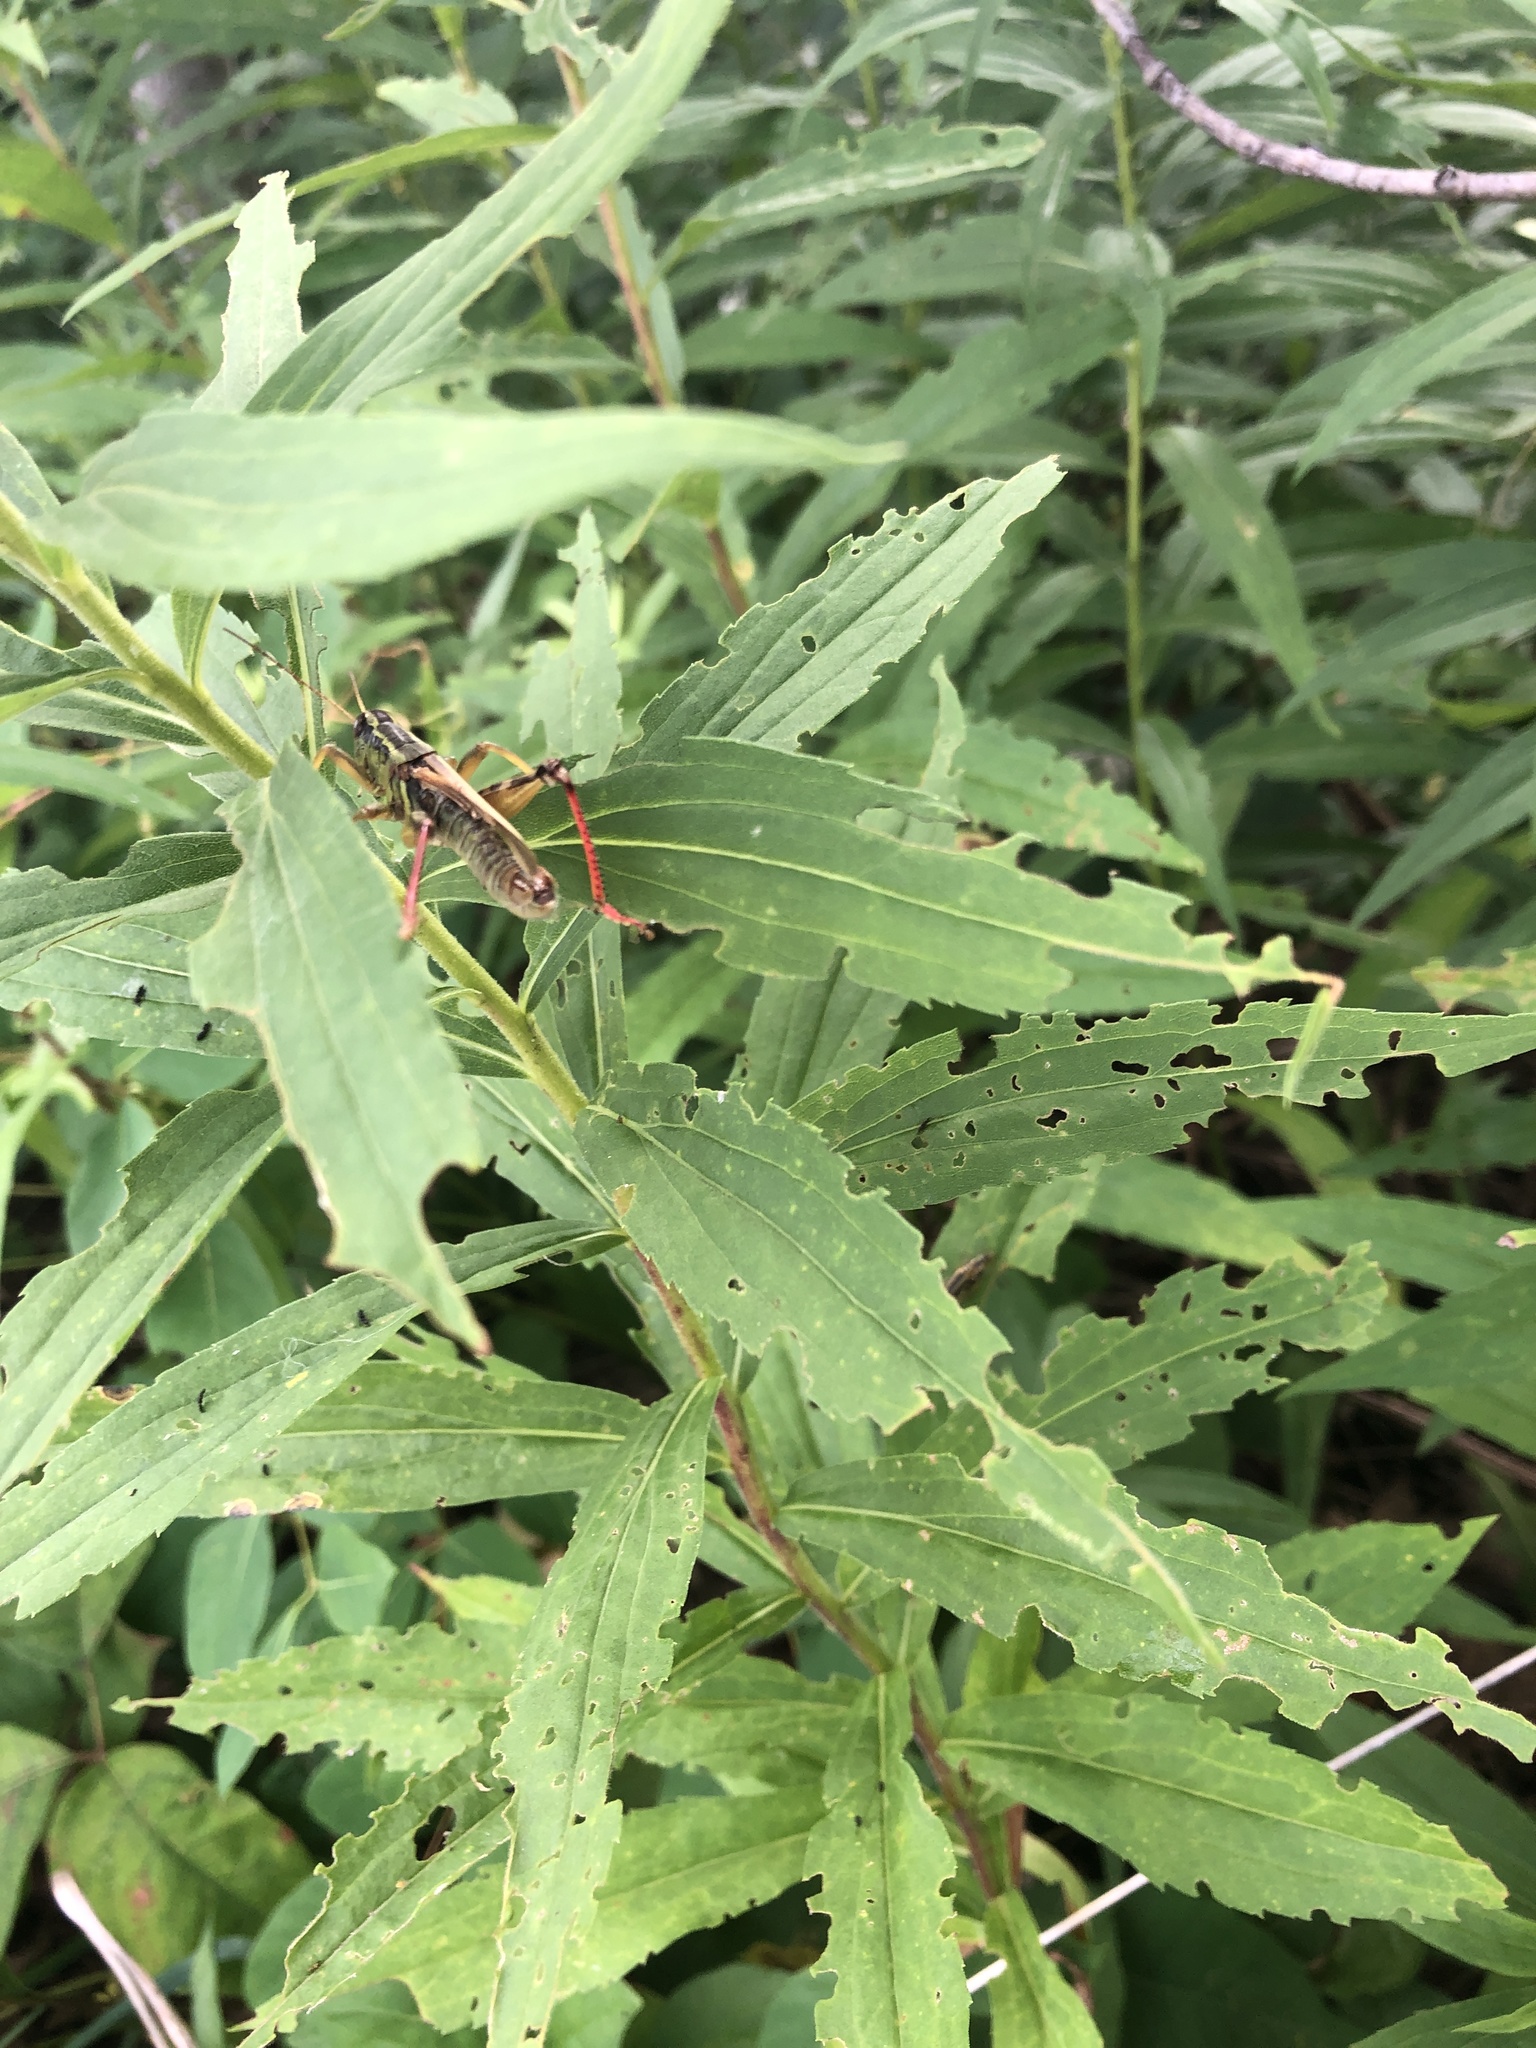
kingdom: Animalia
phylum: Arthropoda
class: Insecta
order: Orthoptera
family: Acrididae
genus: Melanoplus
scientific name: Melanoplus bivittatus
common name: Two-striped grasshopper
